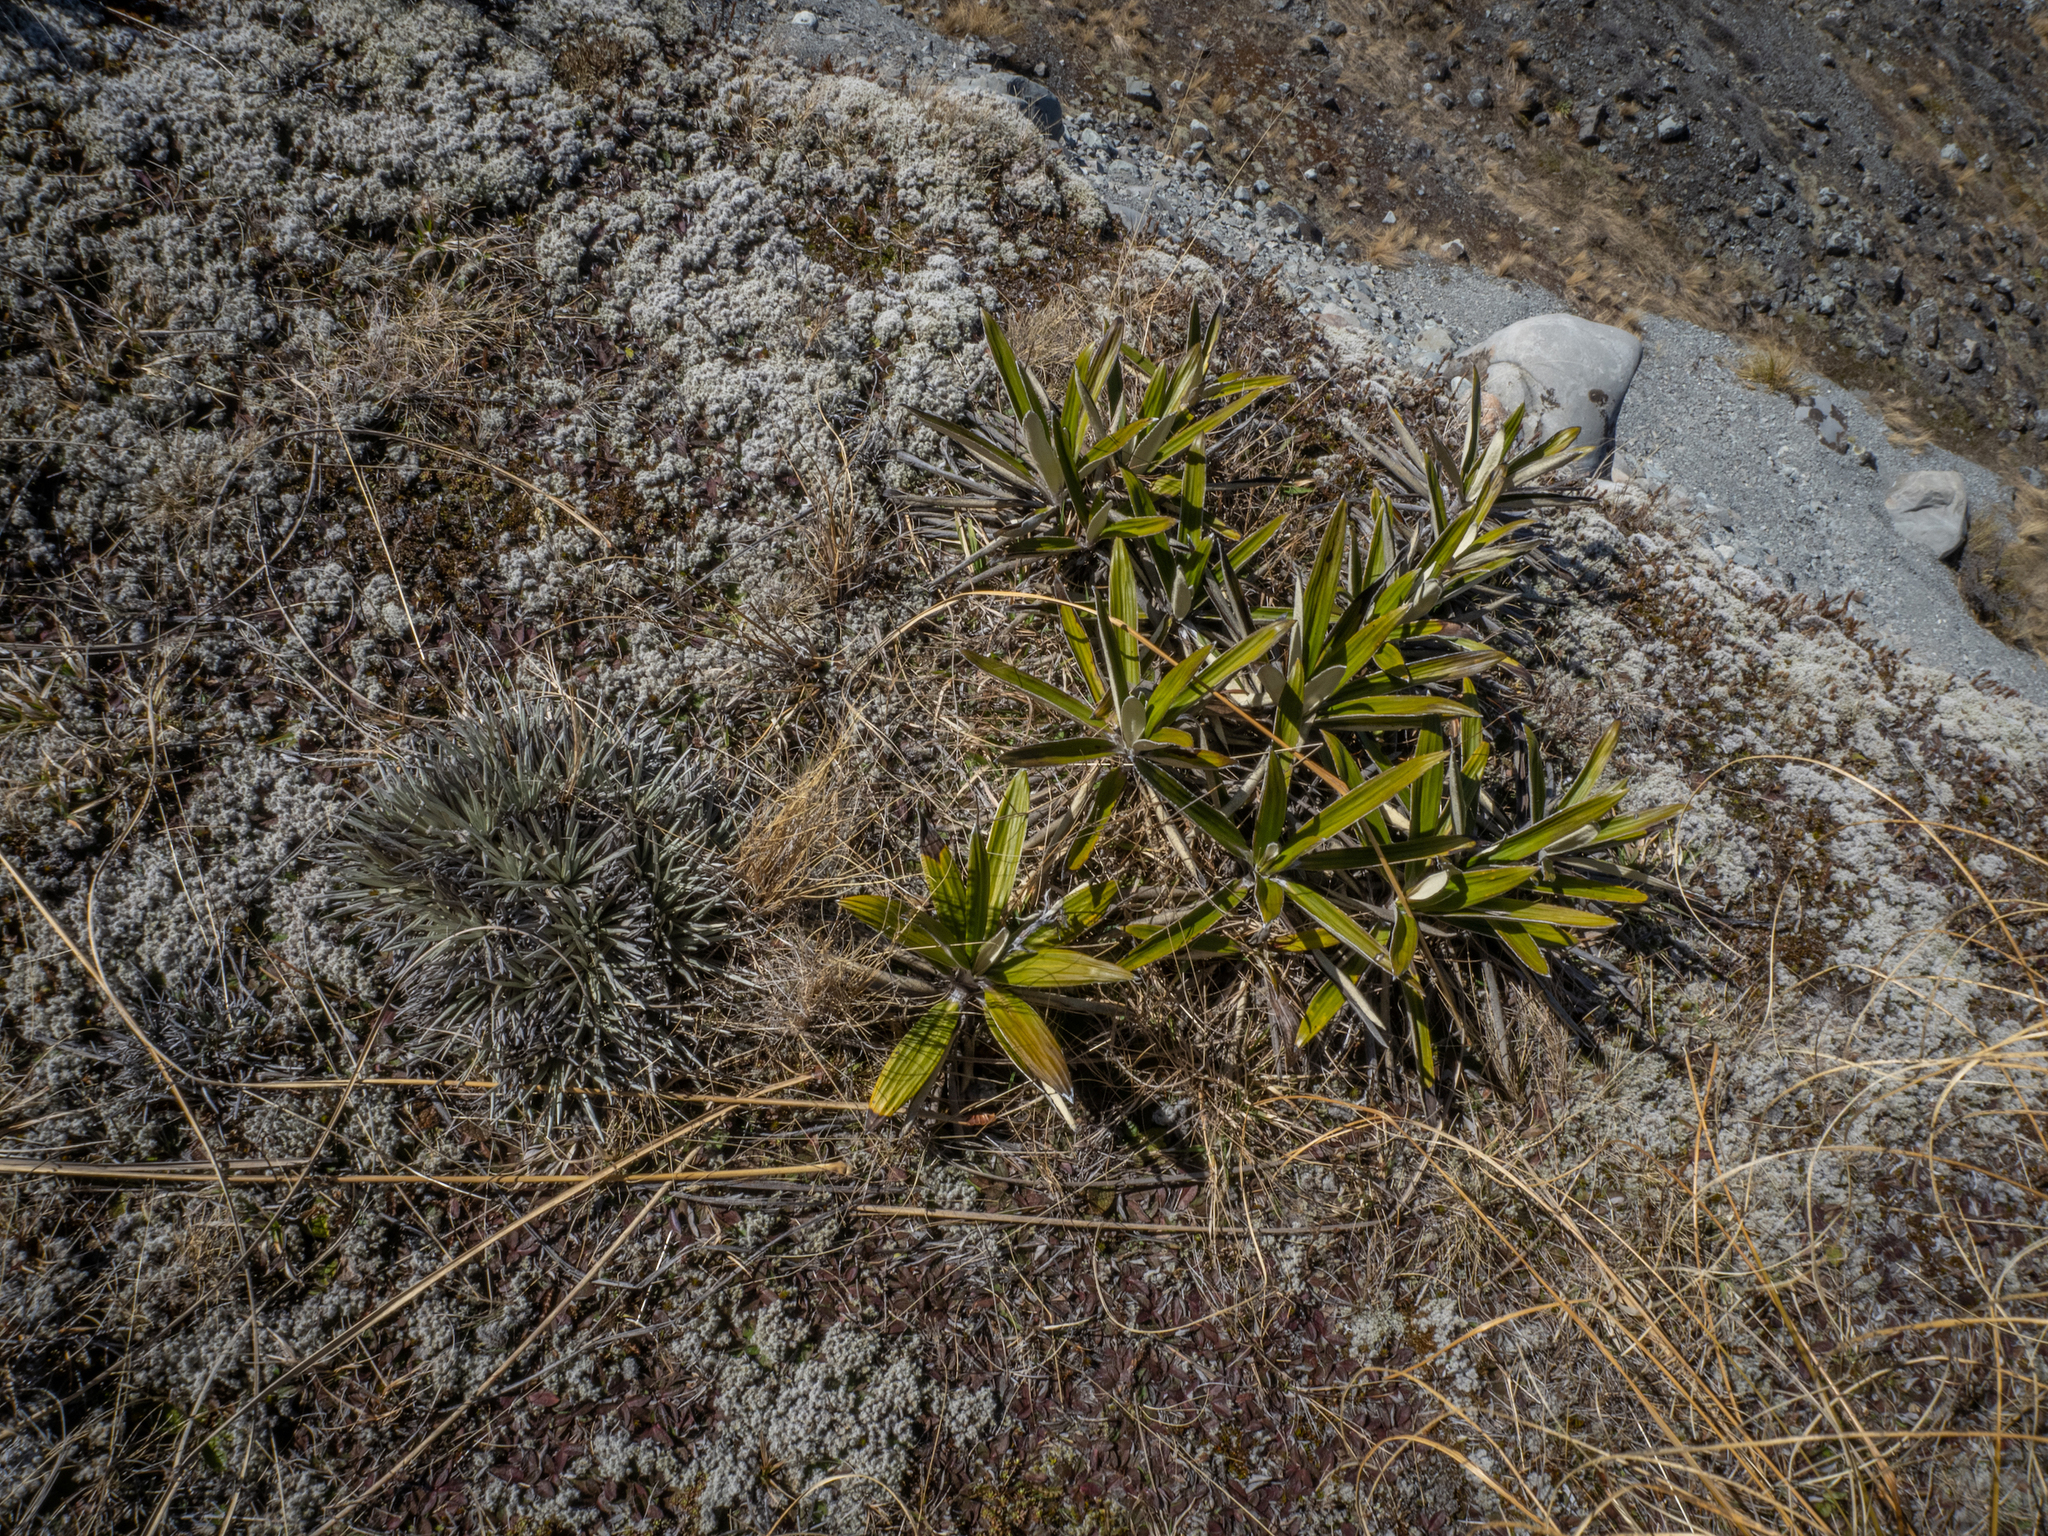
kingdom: Plantae
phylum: Tracheophyta
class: Magnoliopsida
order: Asterales
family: Asteraceae
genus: Celmisia
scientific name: Celmisia spectabilis
